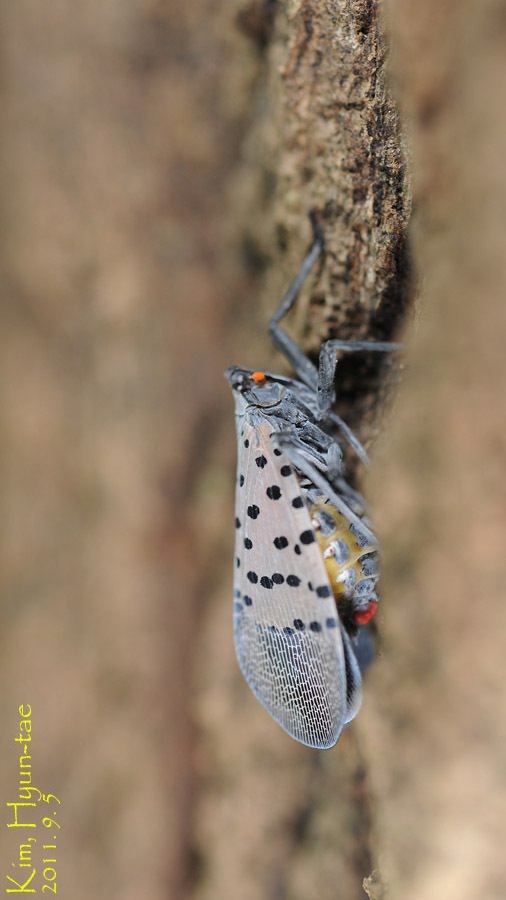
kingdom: Animalia
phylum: Arthropoda
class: Insecta
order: Hemiptera
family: Fulgoridae
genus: Lycorma
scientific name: Lycorma delicatula
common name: Spotted lanternfly
